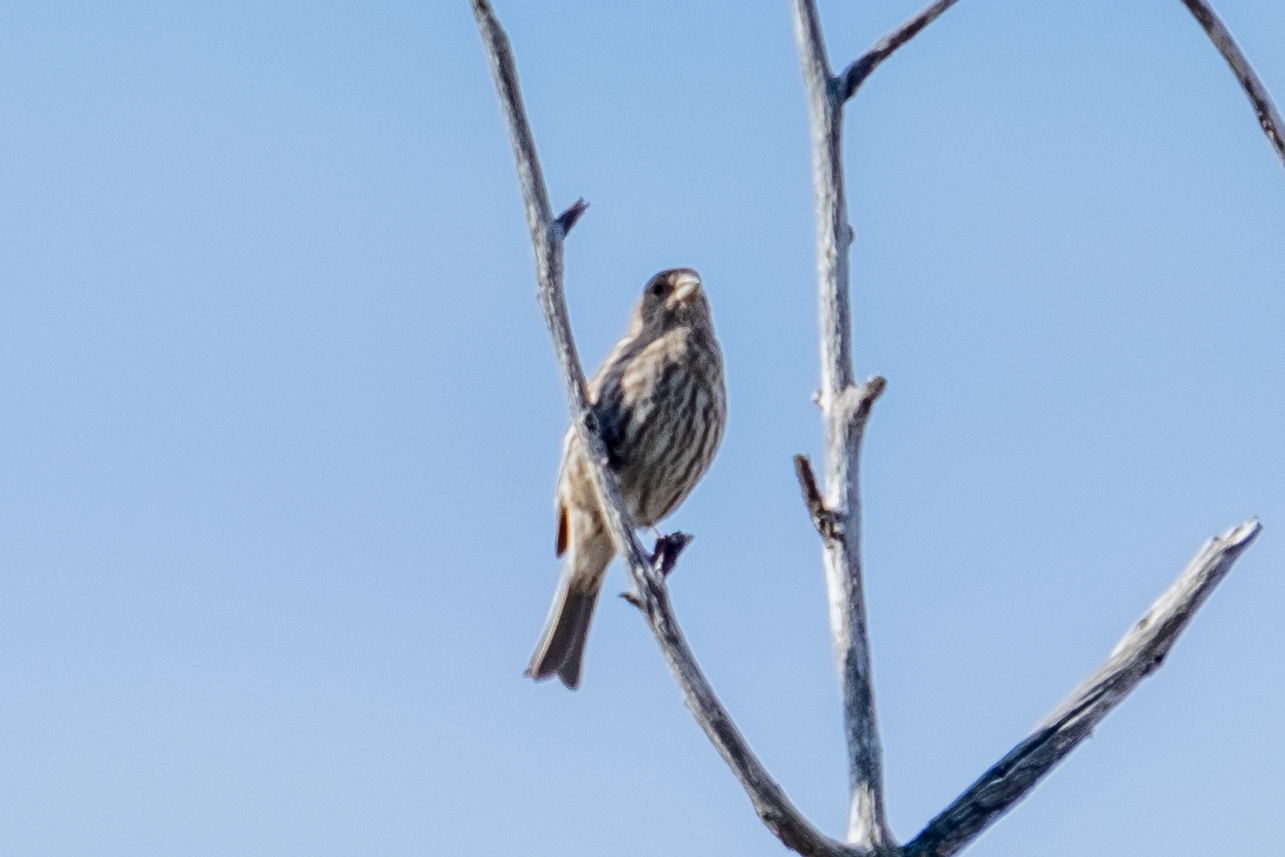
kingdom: Animalia
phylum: Chordata
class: Aves
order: Passeriformes
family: Fringillidae
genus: Haemorhous
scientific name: Haemorhous mexicanus
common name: House finch
